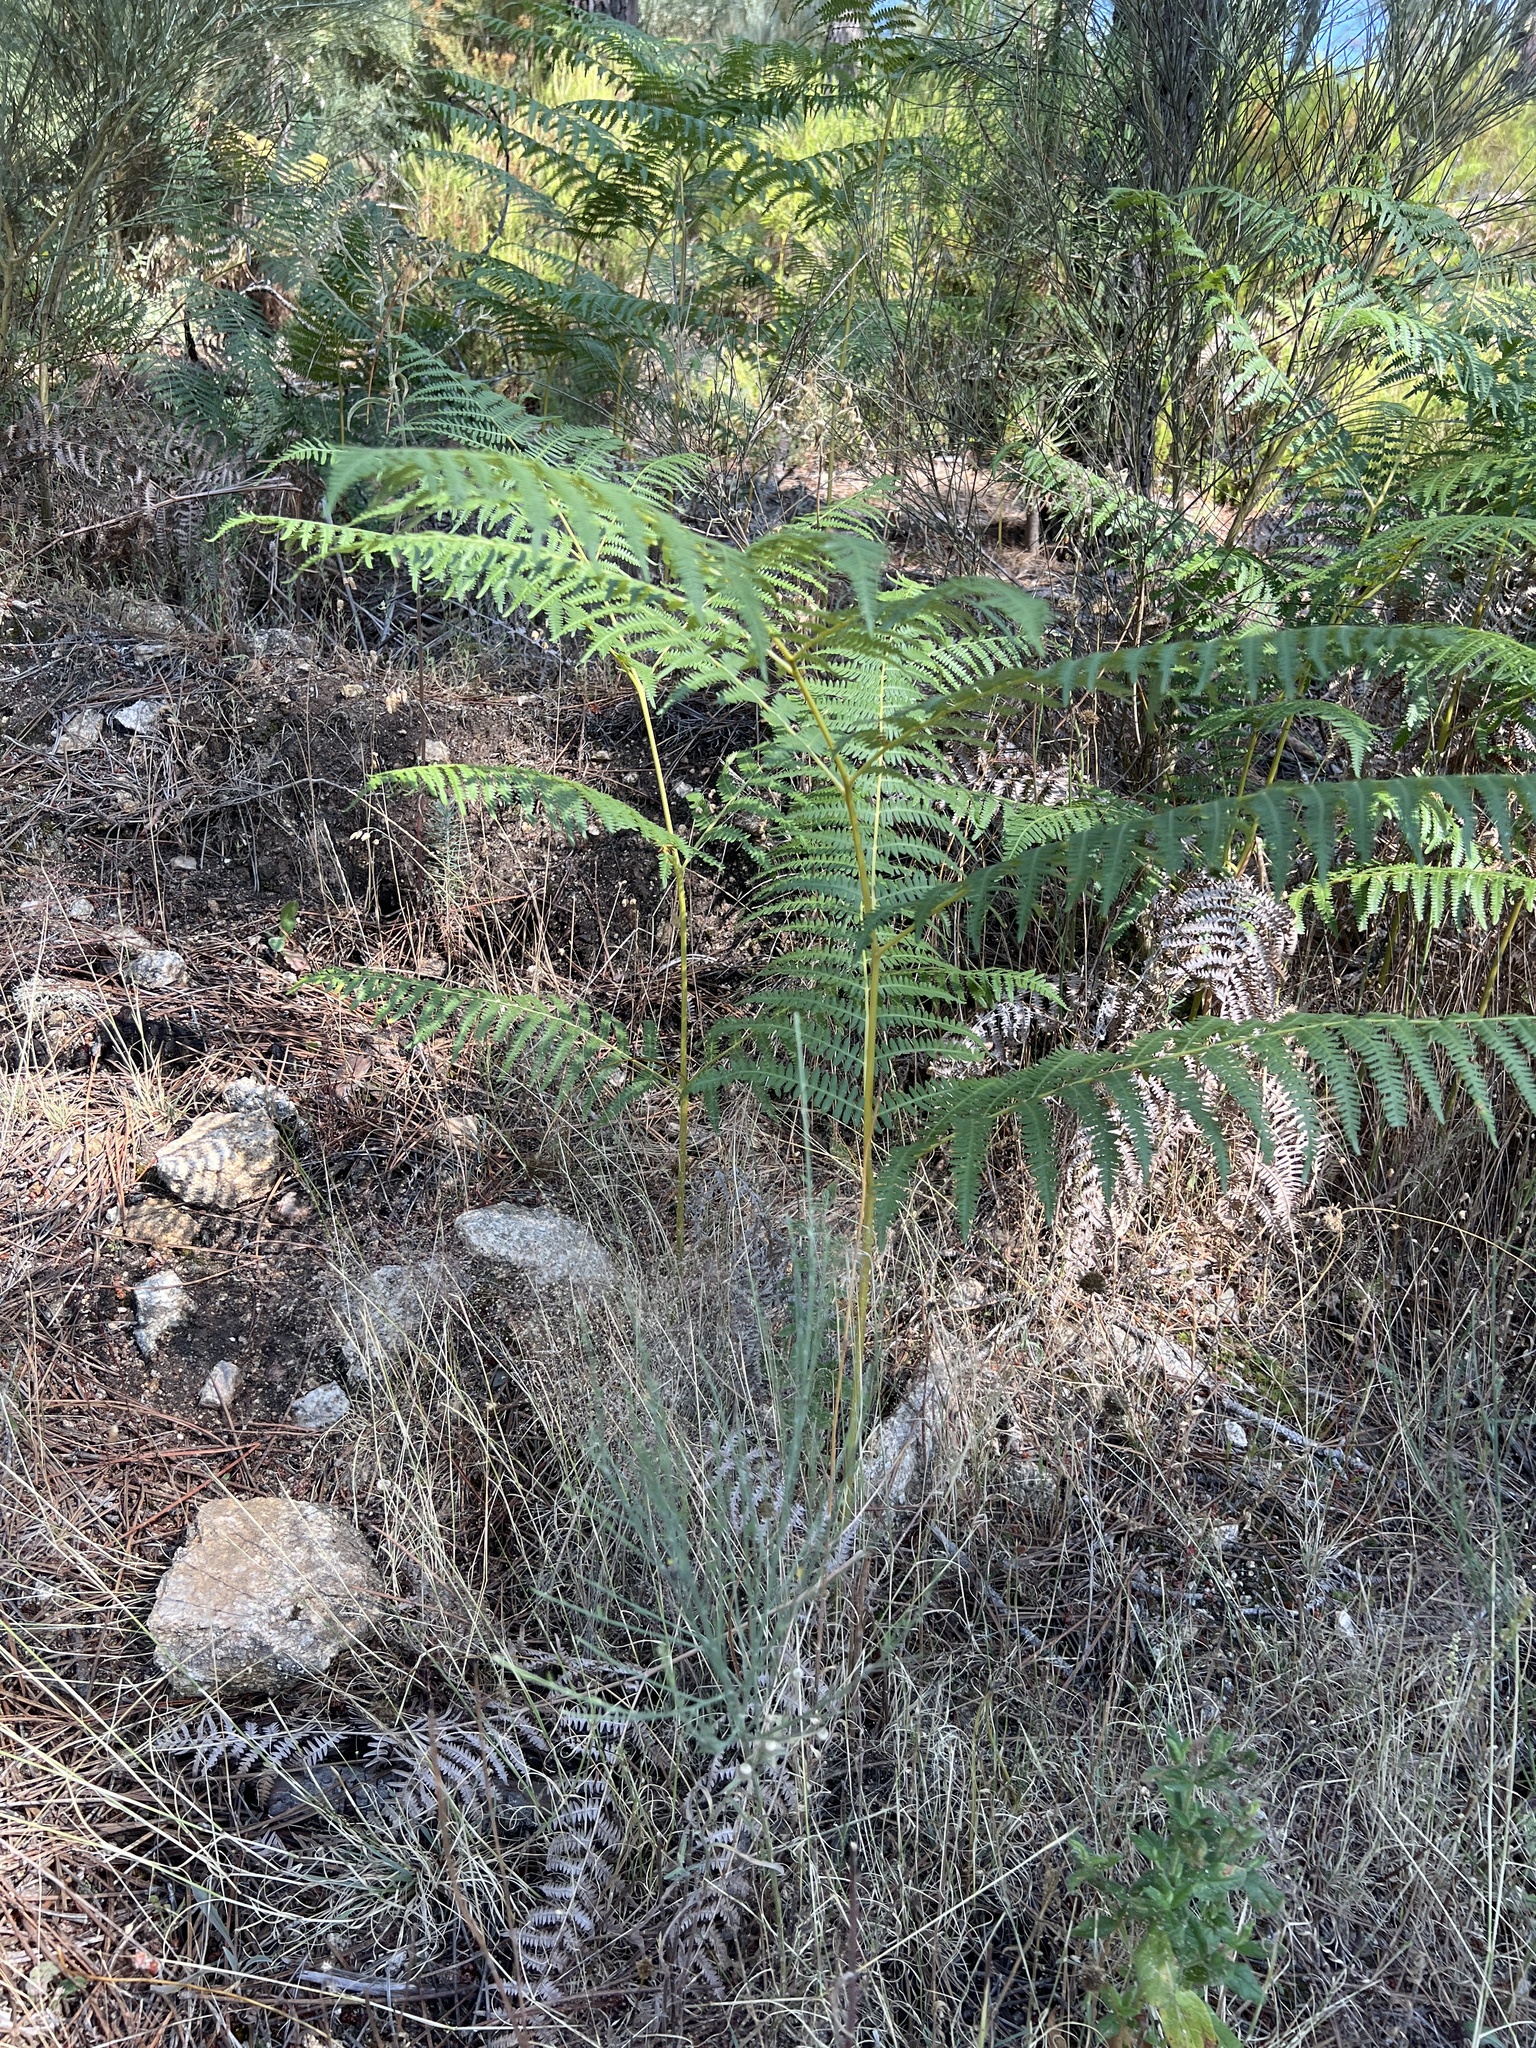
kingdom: Plantae
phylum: Tracheophyta
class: Polypodiopsida
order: Polypodiales
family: Dennstaedtiaceae
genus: Pteridium
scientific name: Pteridium aquilinum
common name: Bracken
